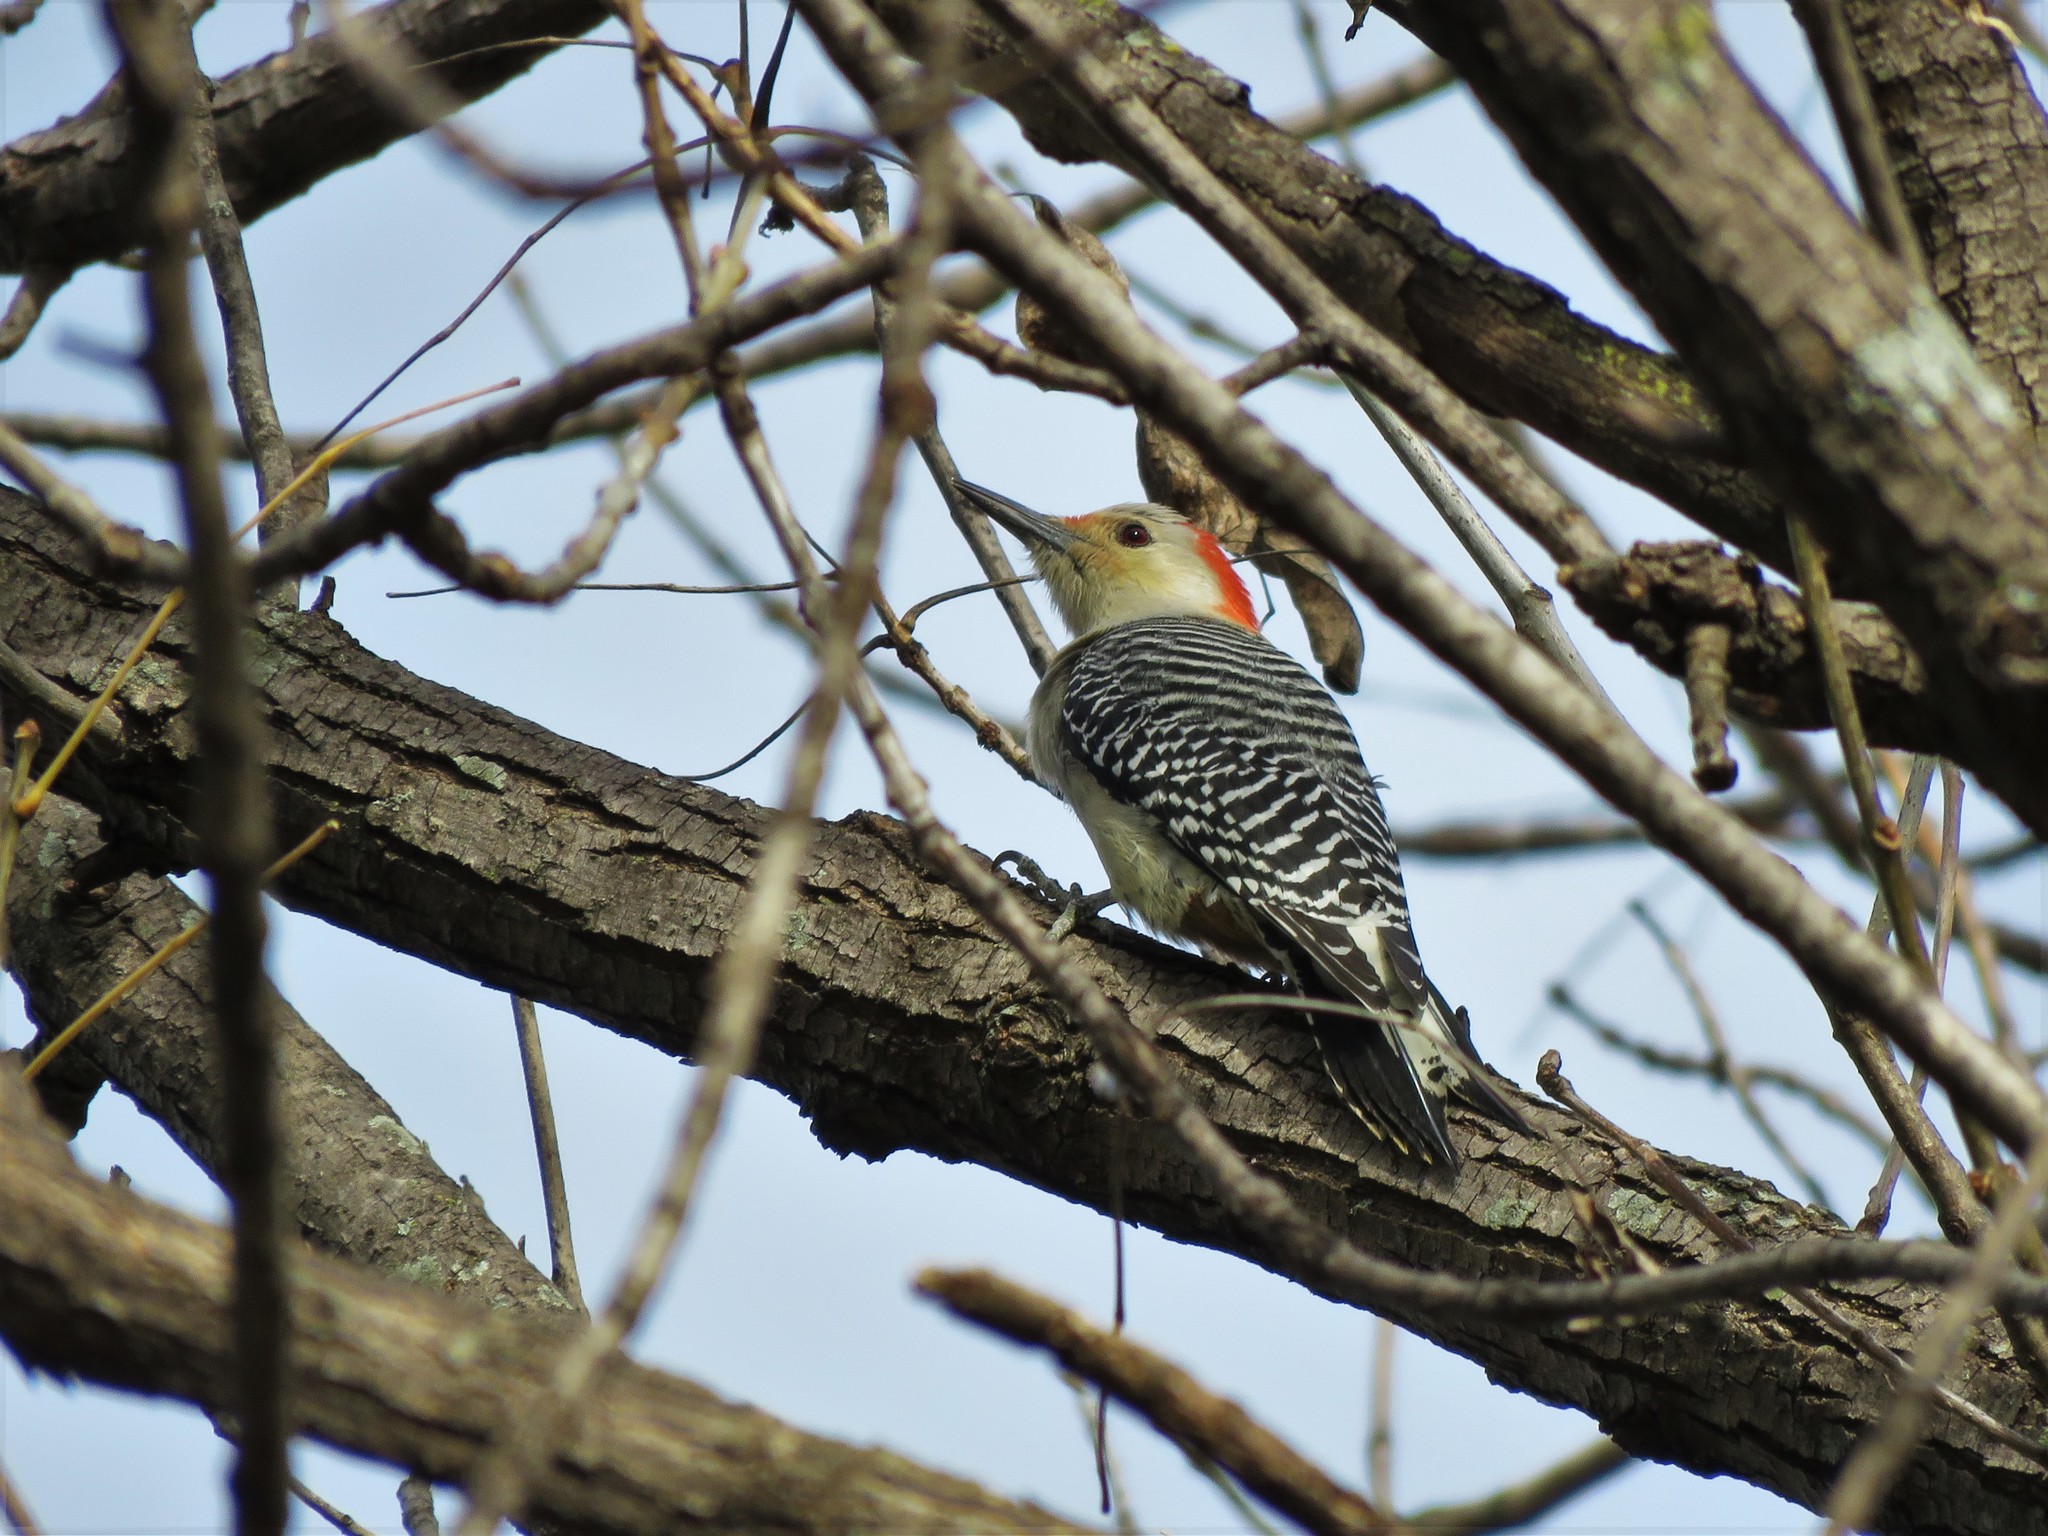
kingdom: Animalia
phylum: Chordata
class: Aves
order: Piciformes
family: Picidae
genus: Melanerpes
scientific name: Melanerpes carolinus
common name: Red-bellied woodpecker
